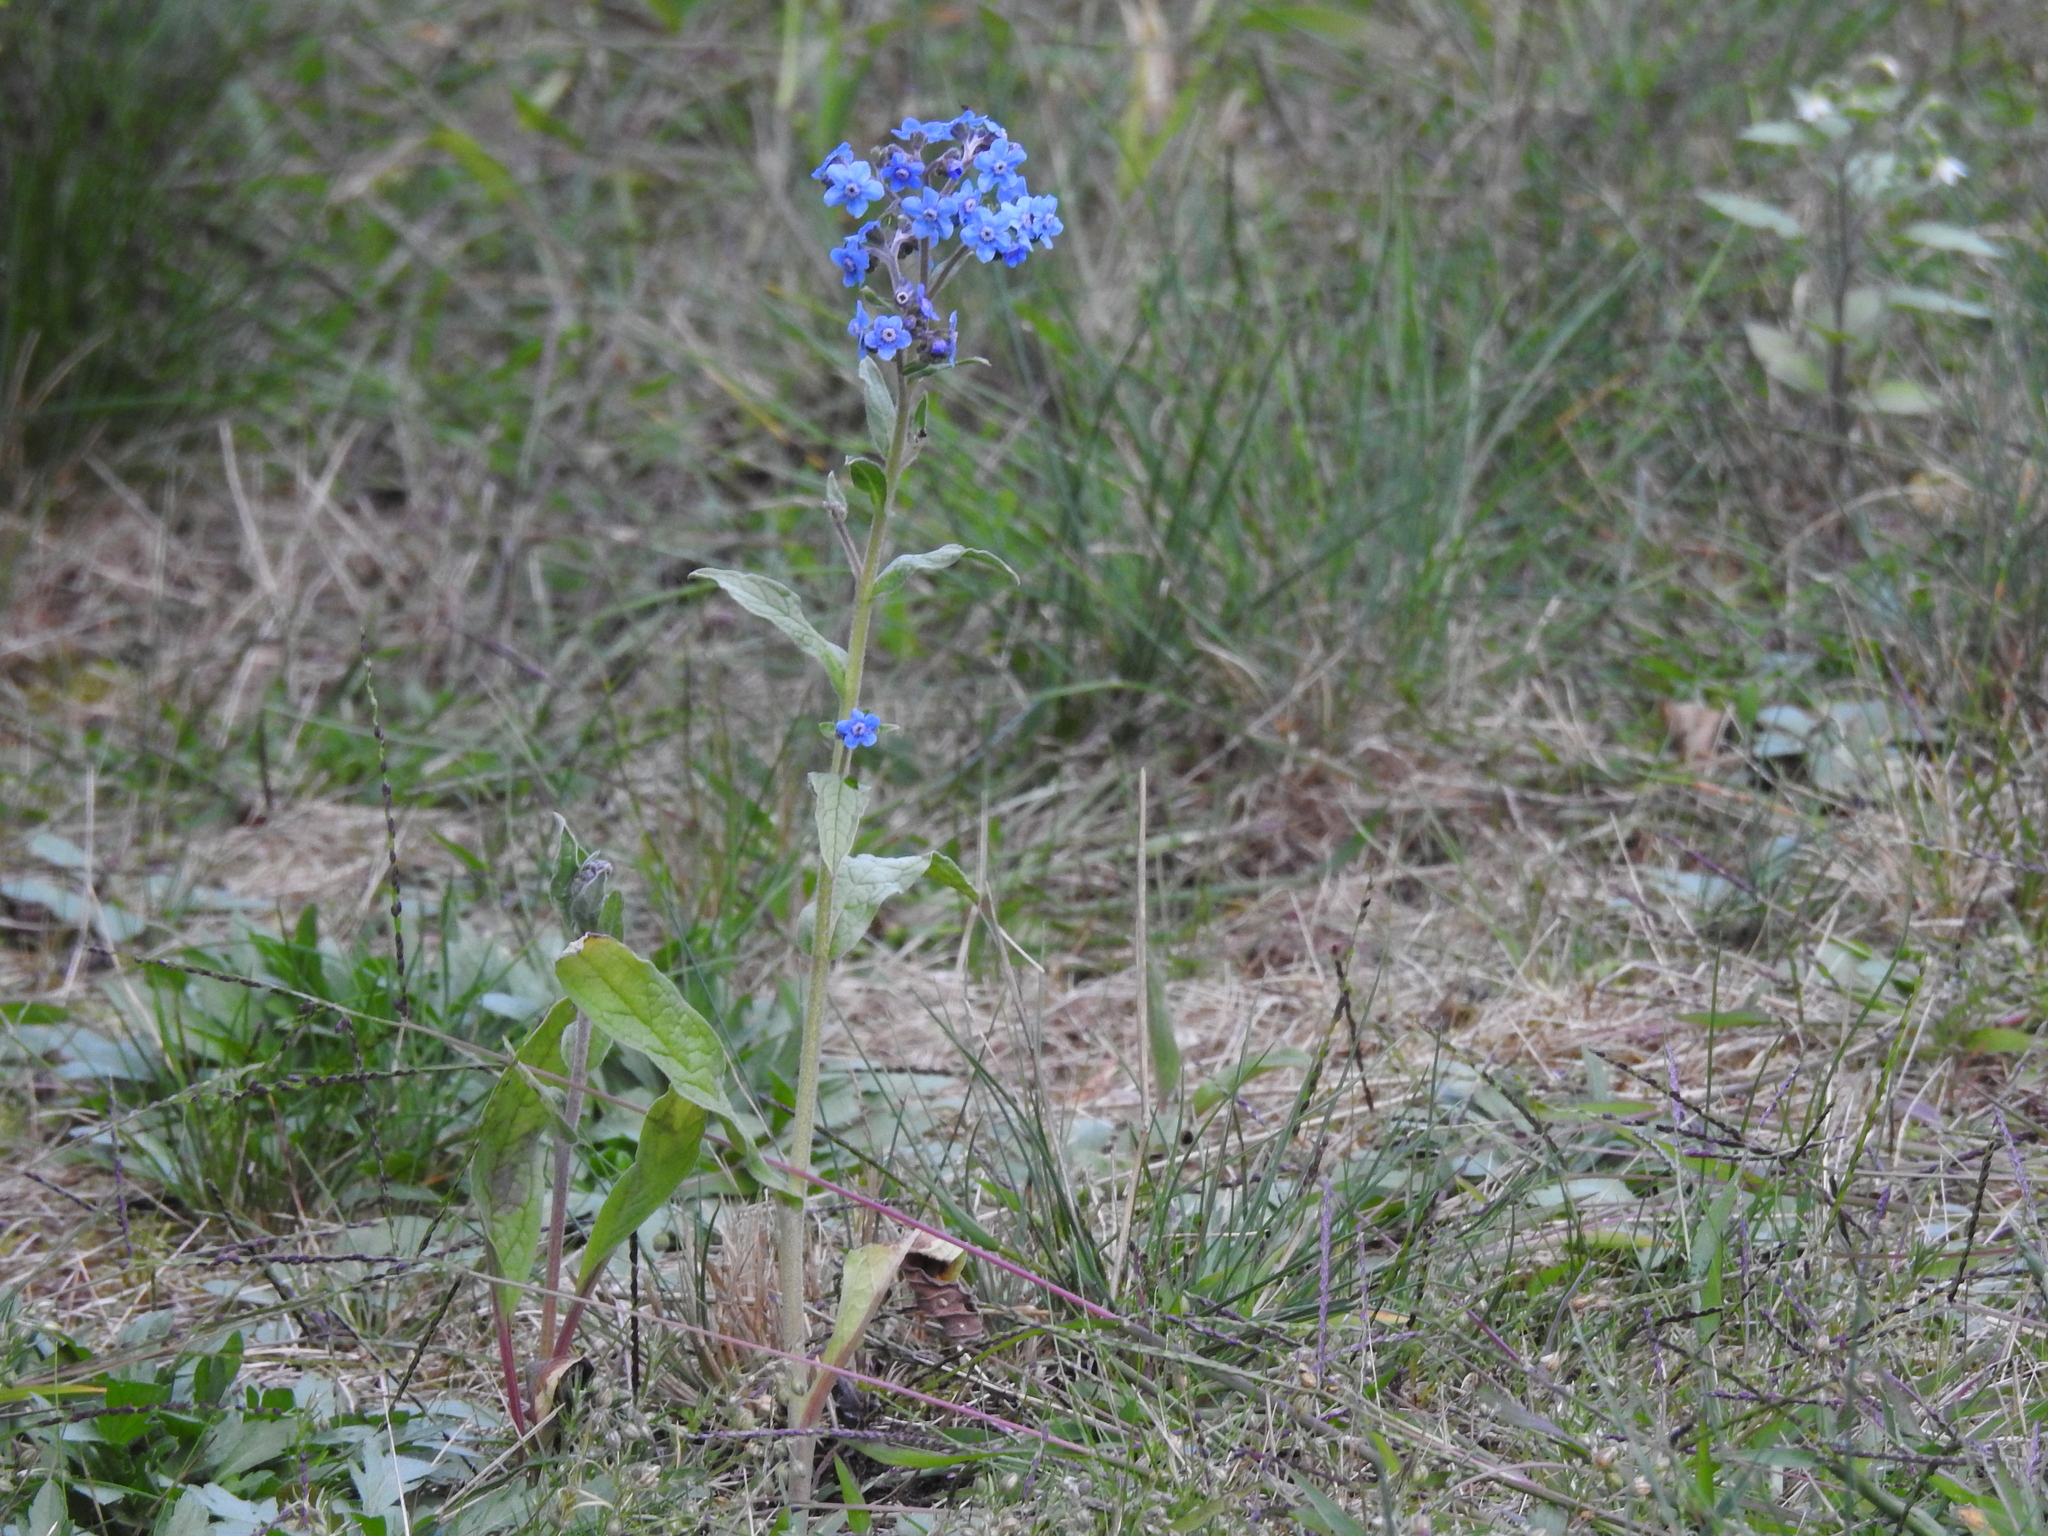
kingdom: Plantae
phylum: Tracheophyta
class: Magnoliopsida
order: Boraginales
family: Boraginaceae
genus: Cynoglossum
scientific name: Cynoglossum amabile
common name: Chinese hound's tongue
